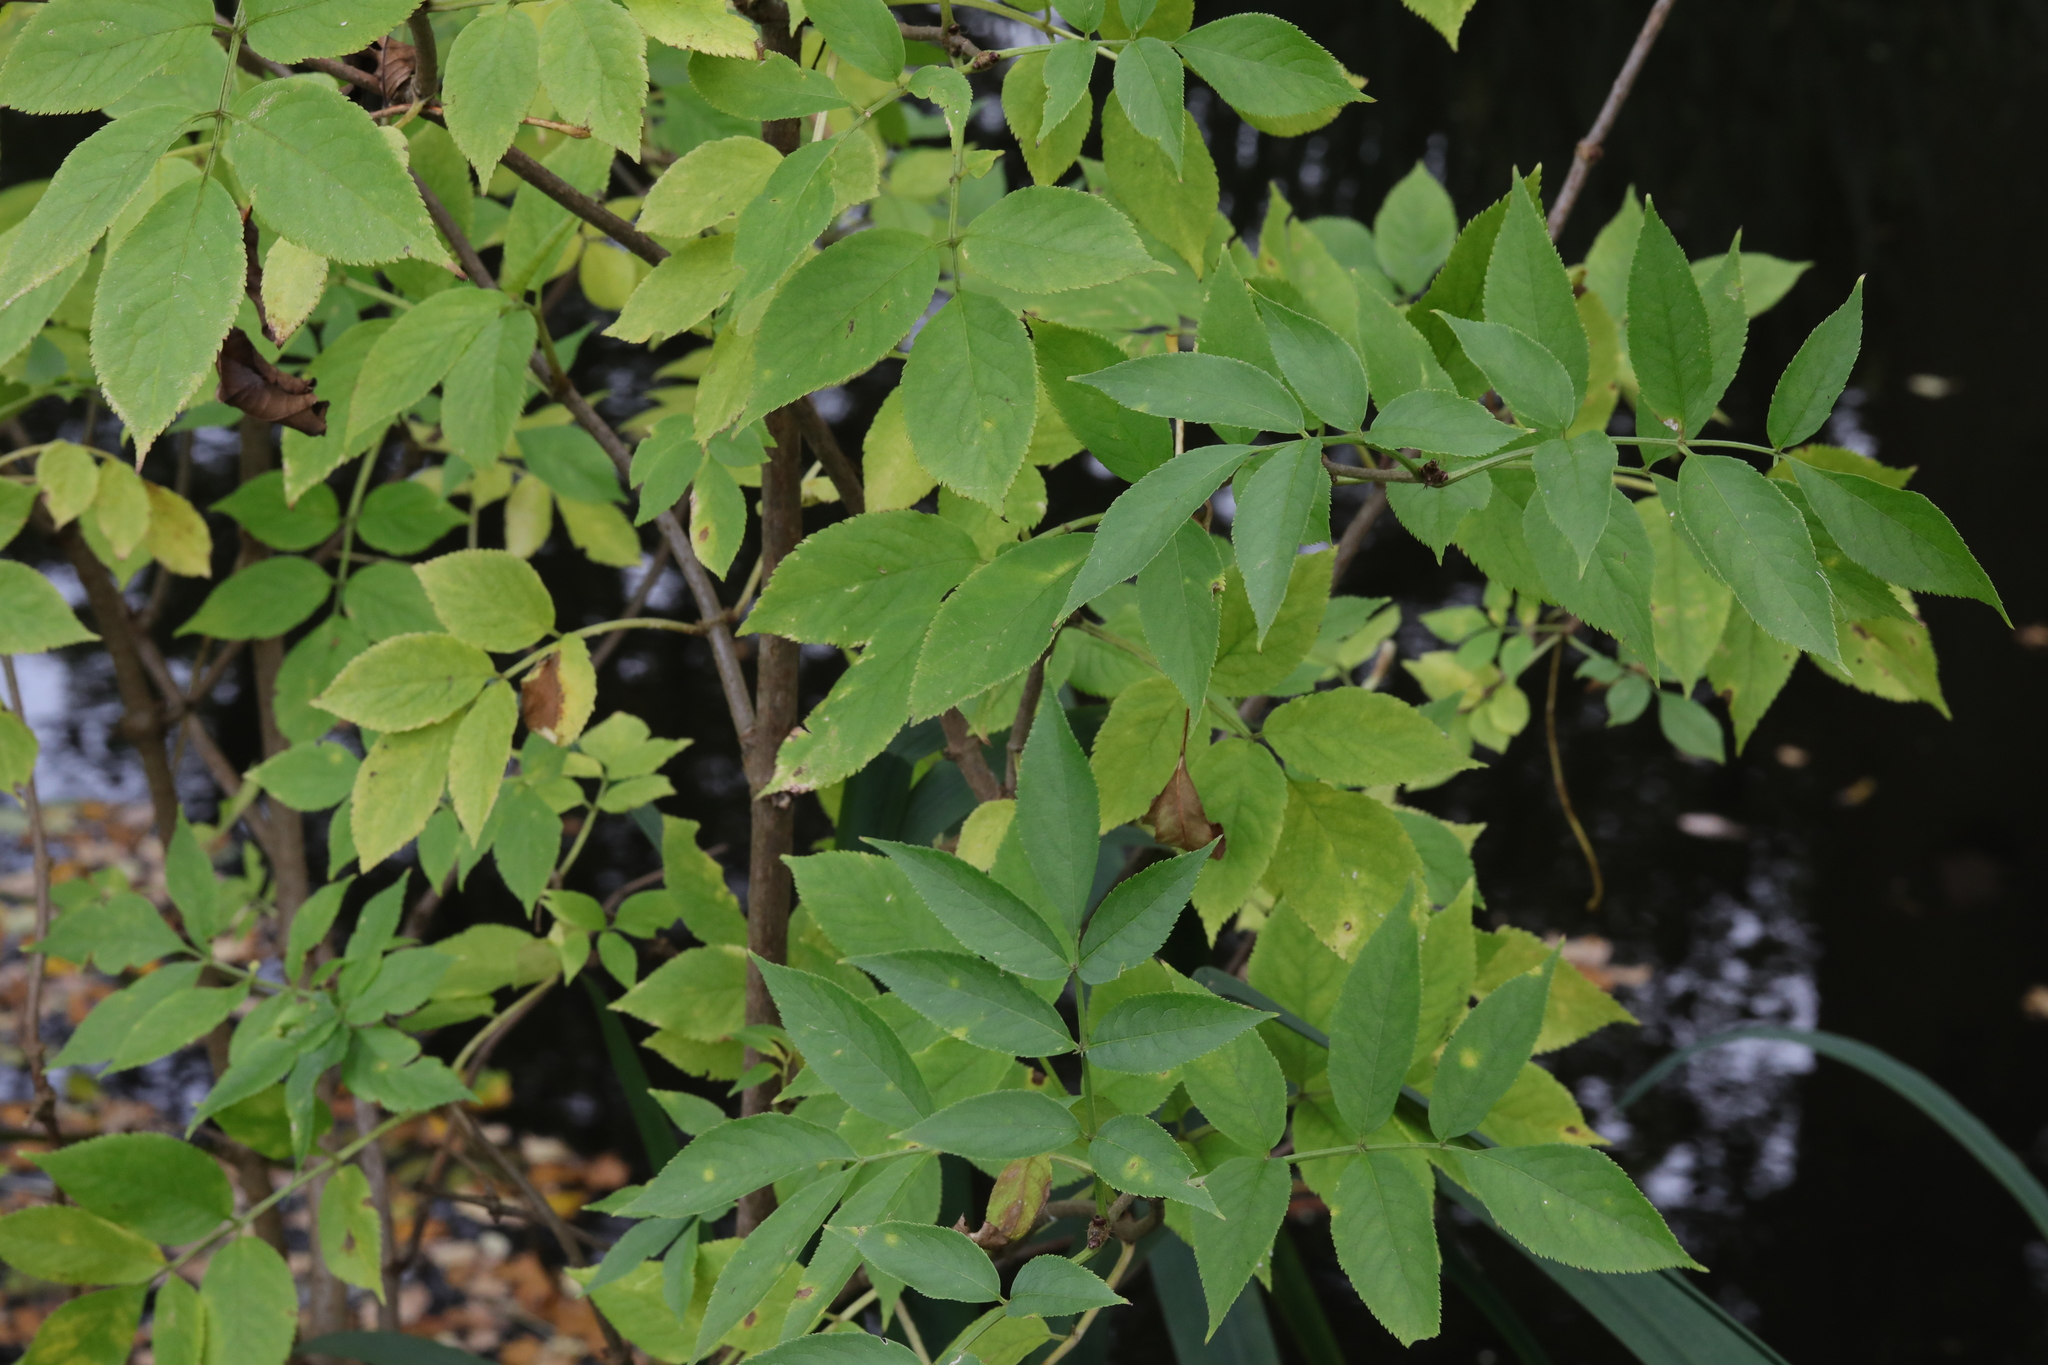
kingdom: Plantae
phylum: Tracheophyta
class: Magnoliopsida
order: Dipsacales
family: Viburnaceae
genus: Sambucus
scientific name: Sambucus nigra
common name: Elder
